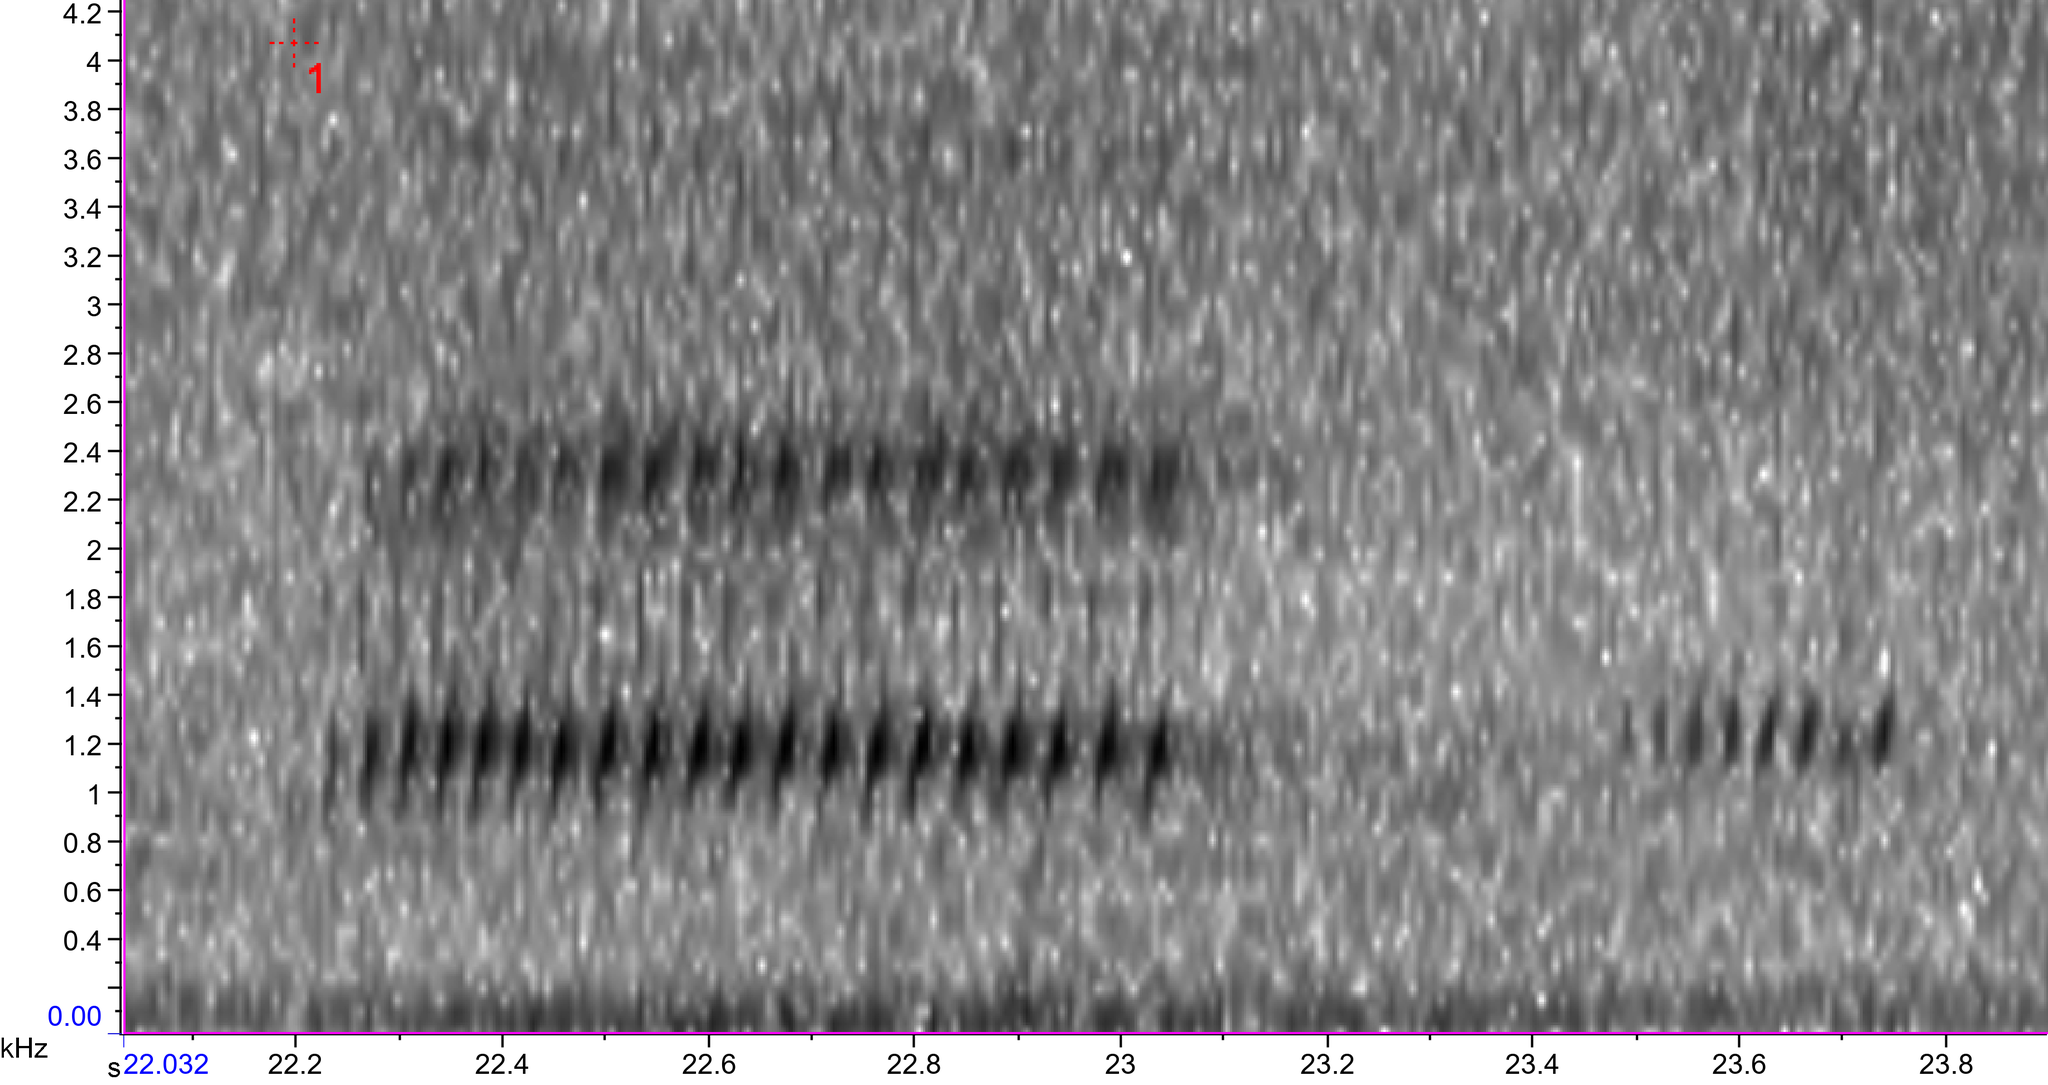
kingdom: Animalia
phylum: Chordata
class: Amphibia
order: Anura
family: Hylidae
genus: Dryophytes
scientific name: Dryophytes versicolor
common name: Gray treefrog
